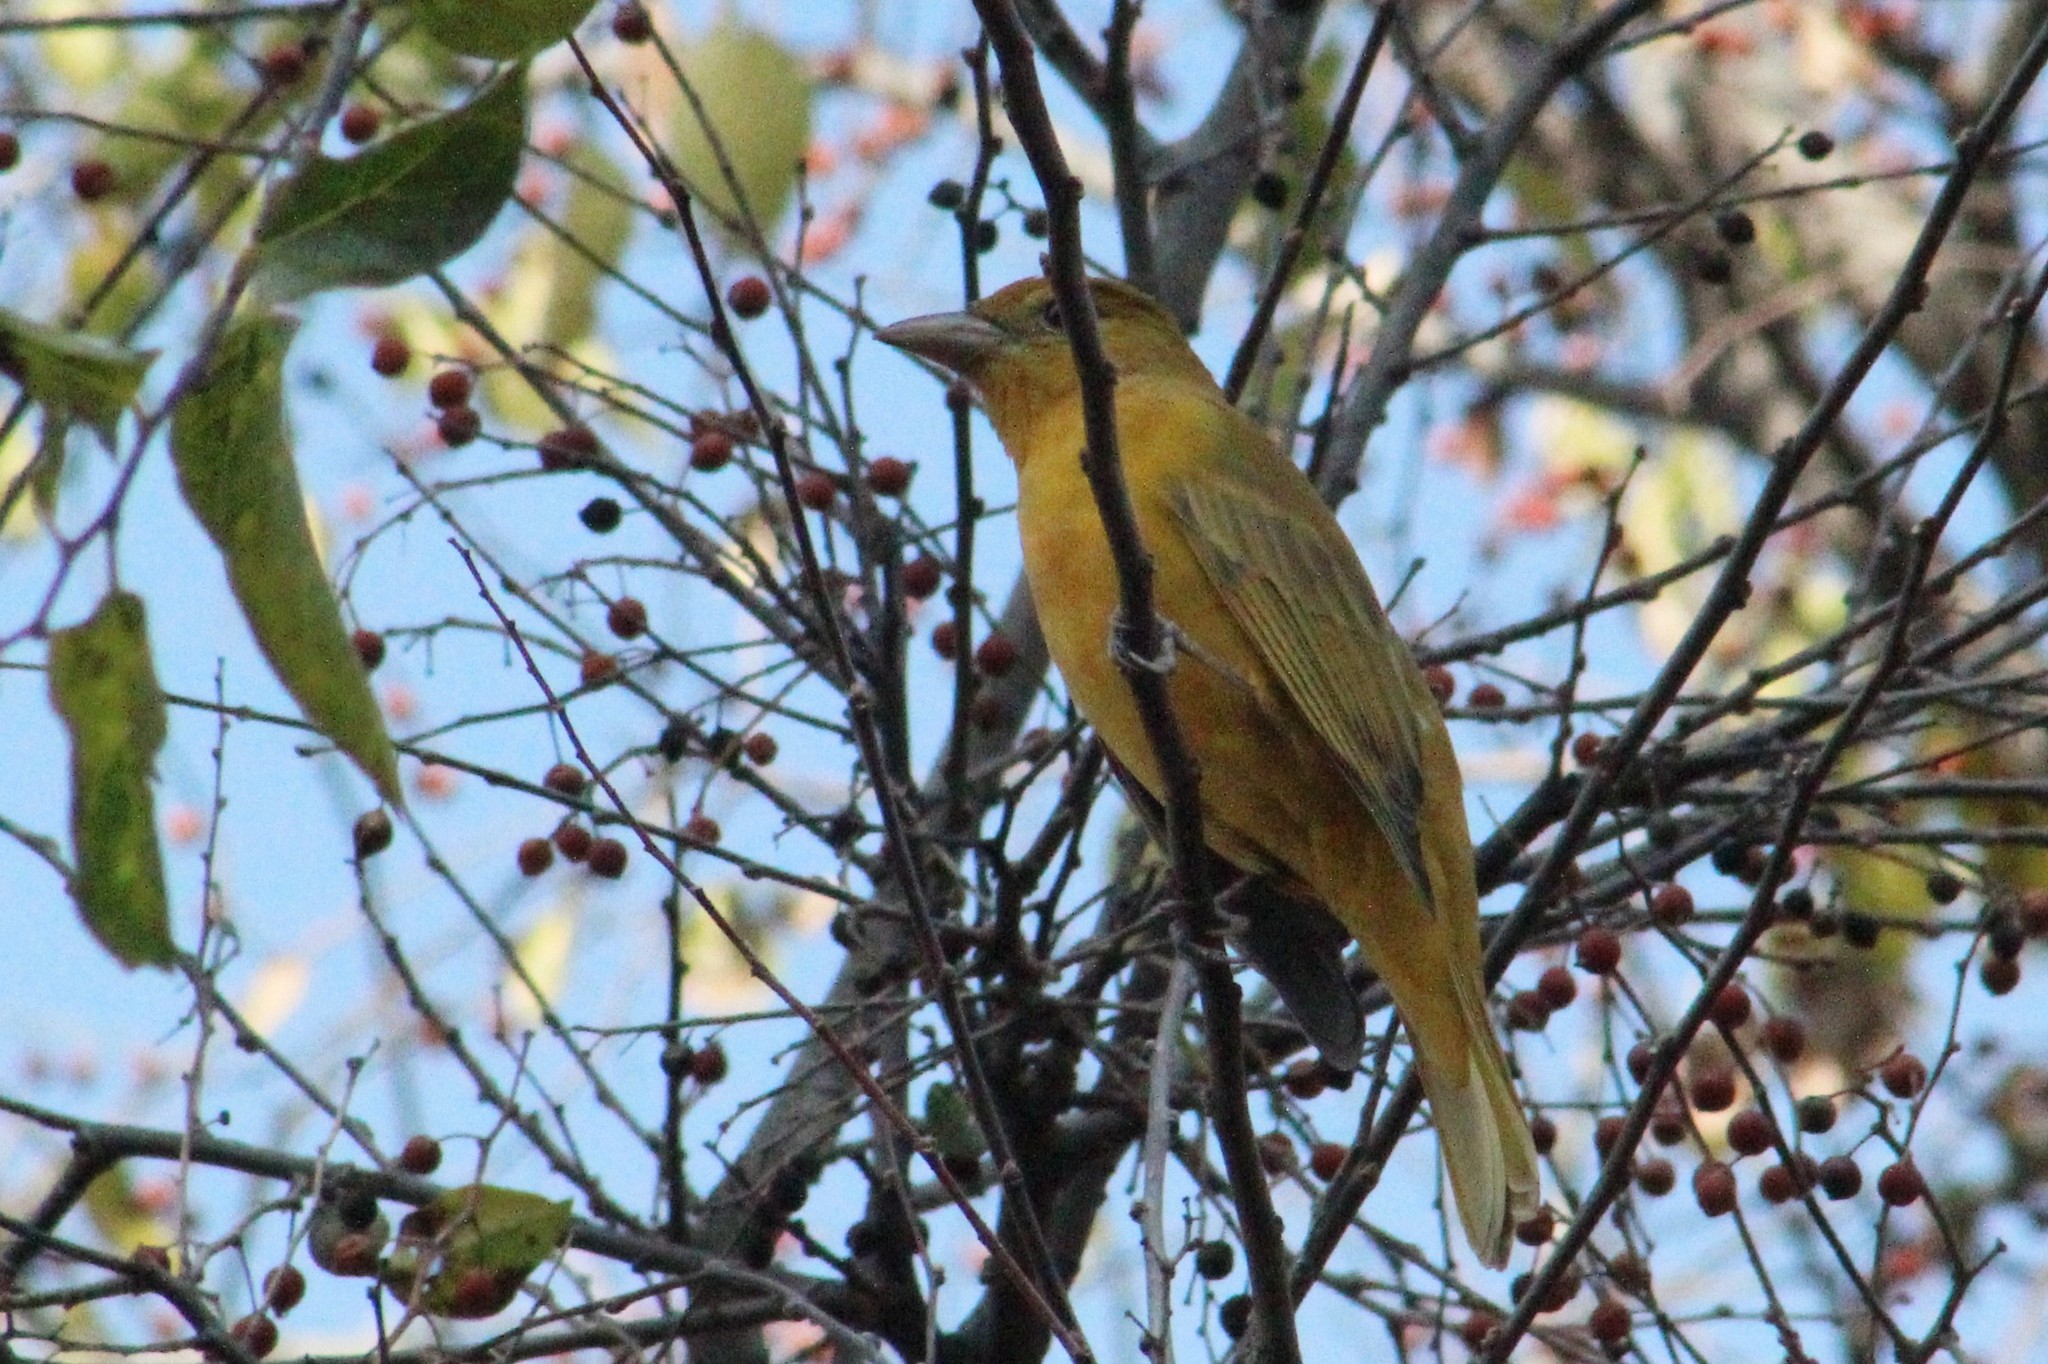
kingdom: Animalia
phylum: Chordata
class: Aves
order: Passeriformes
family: Cardinalidae
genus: Piranga
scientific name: Piranga rubra
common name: Summer tanager
